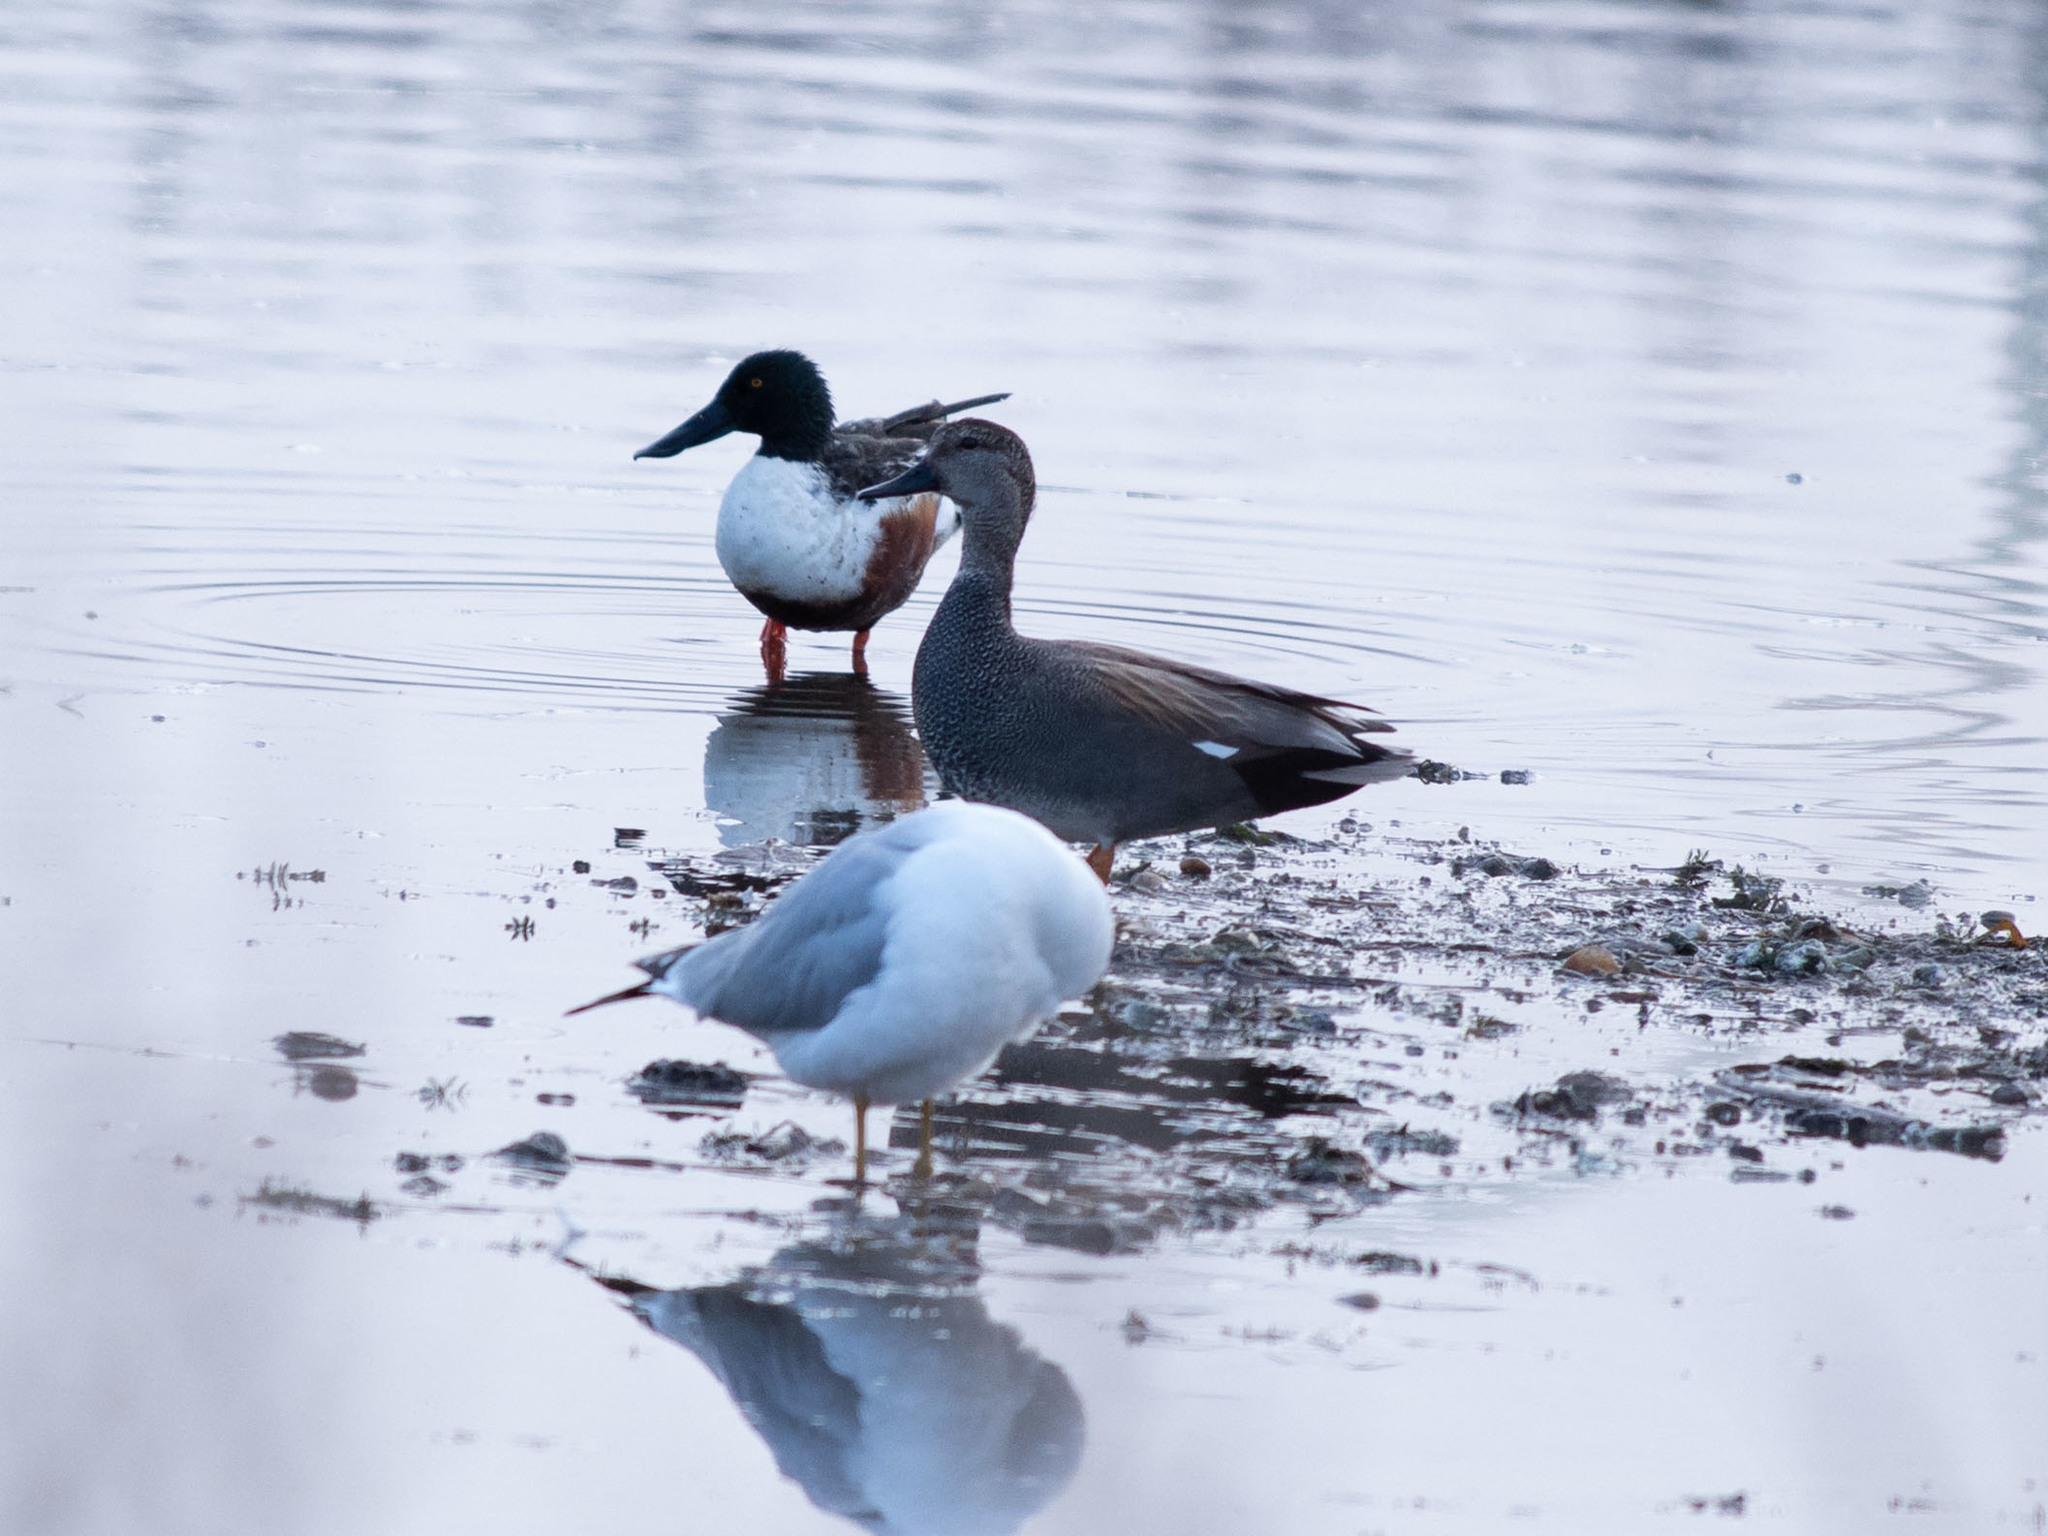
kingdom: Animalia
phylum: Chordata
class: Aves
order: Anseriformes
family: Anatidae
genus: Spatula
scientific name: Spatula clypeata
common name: Northern shoveler
